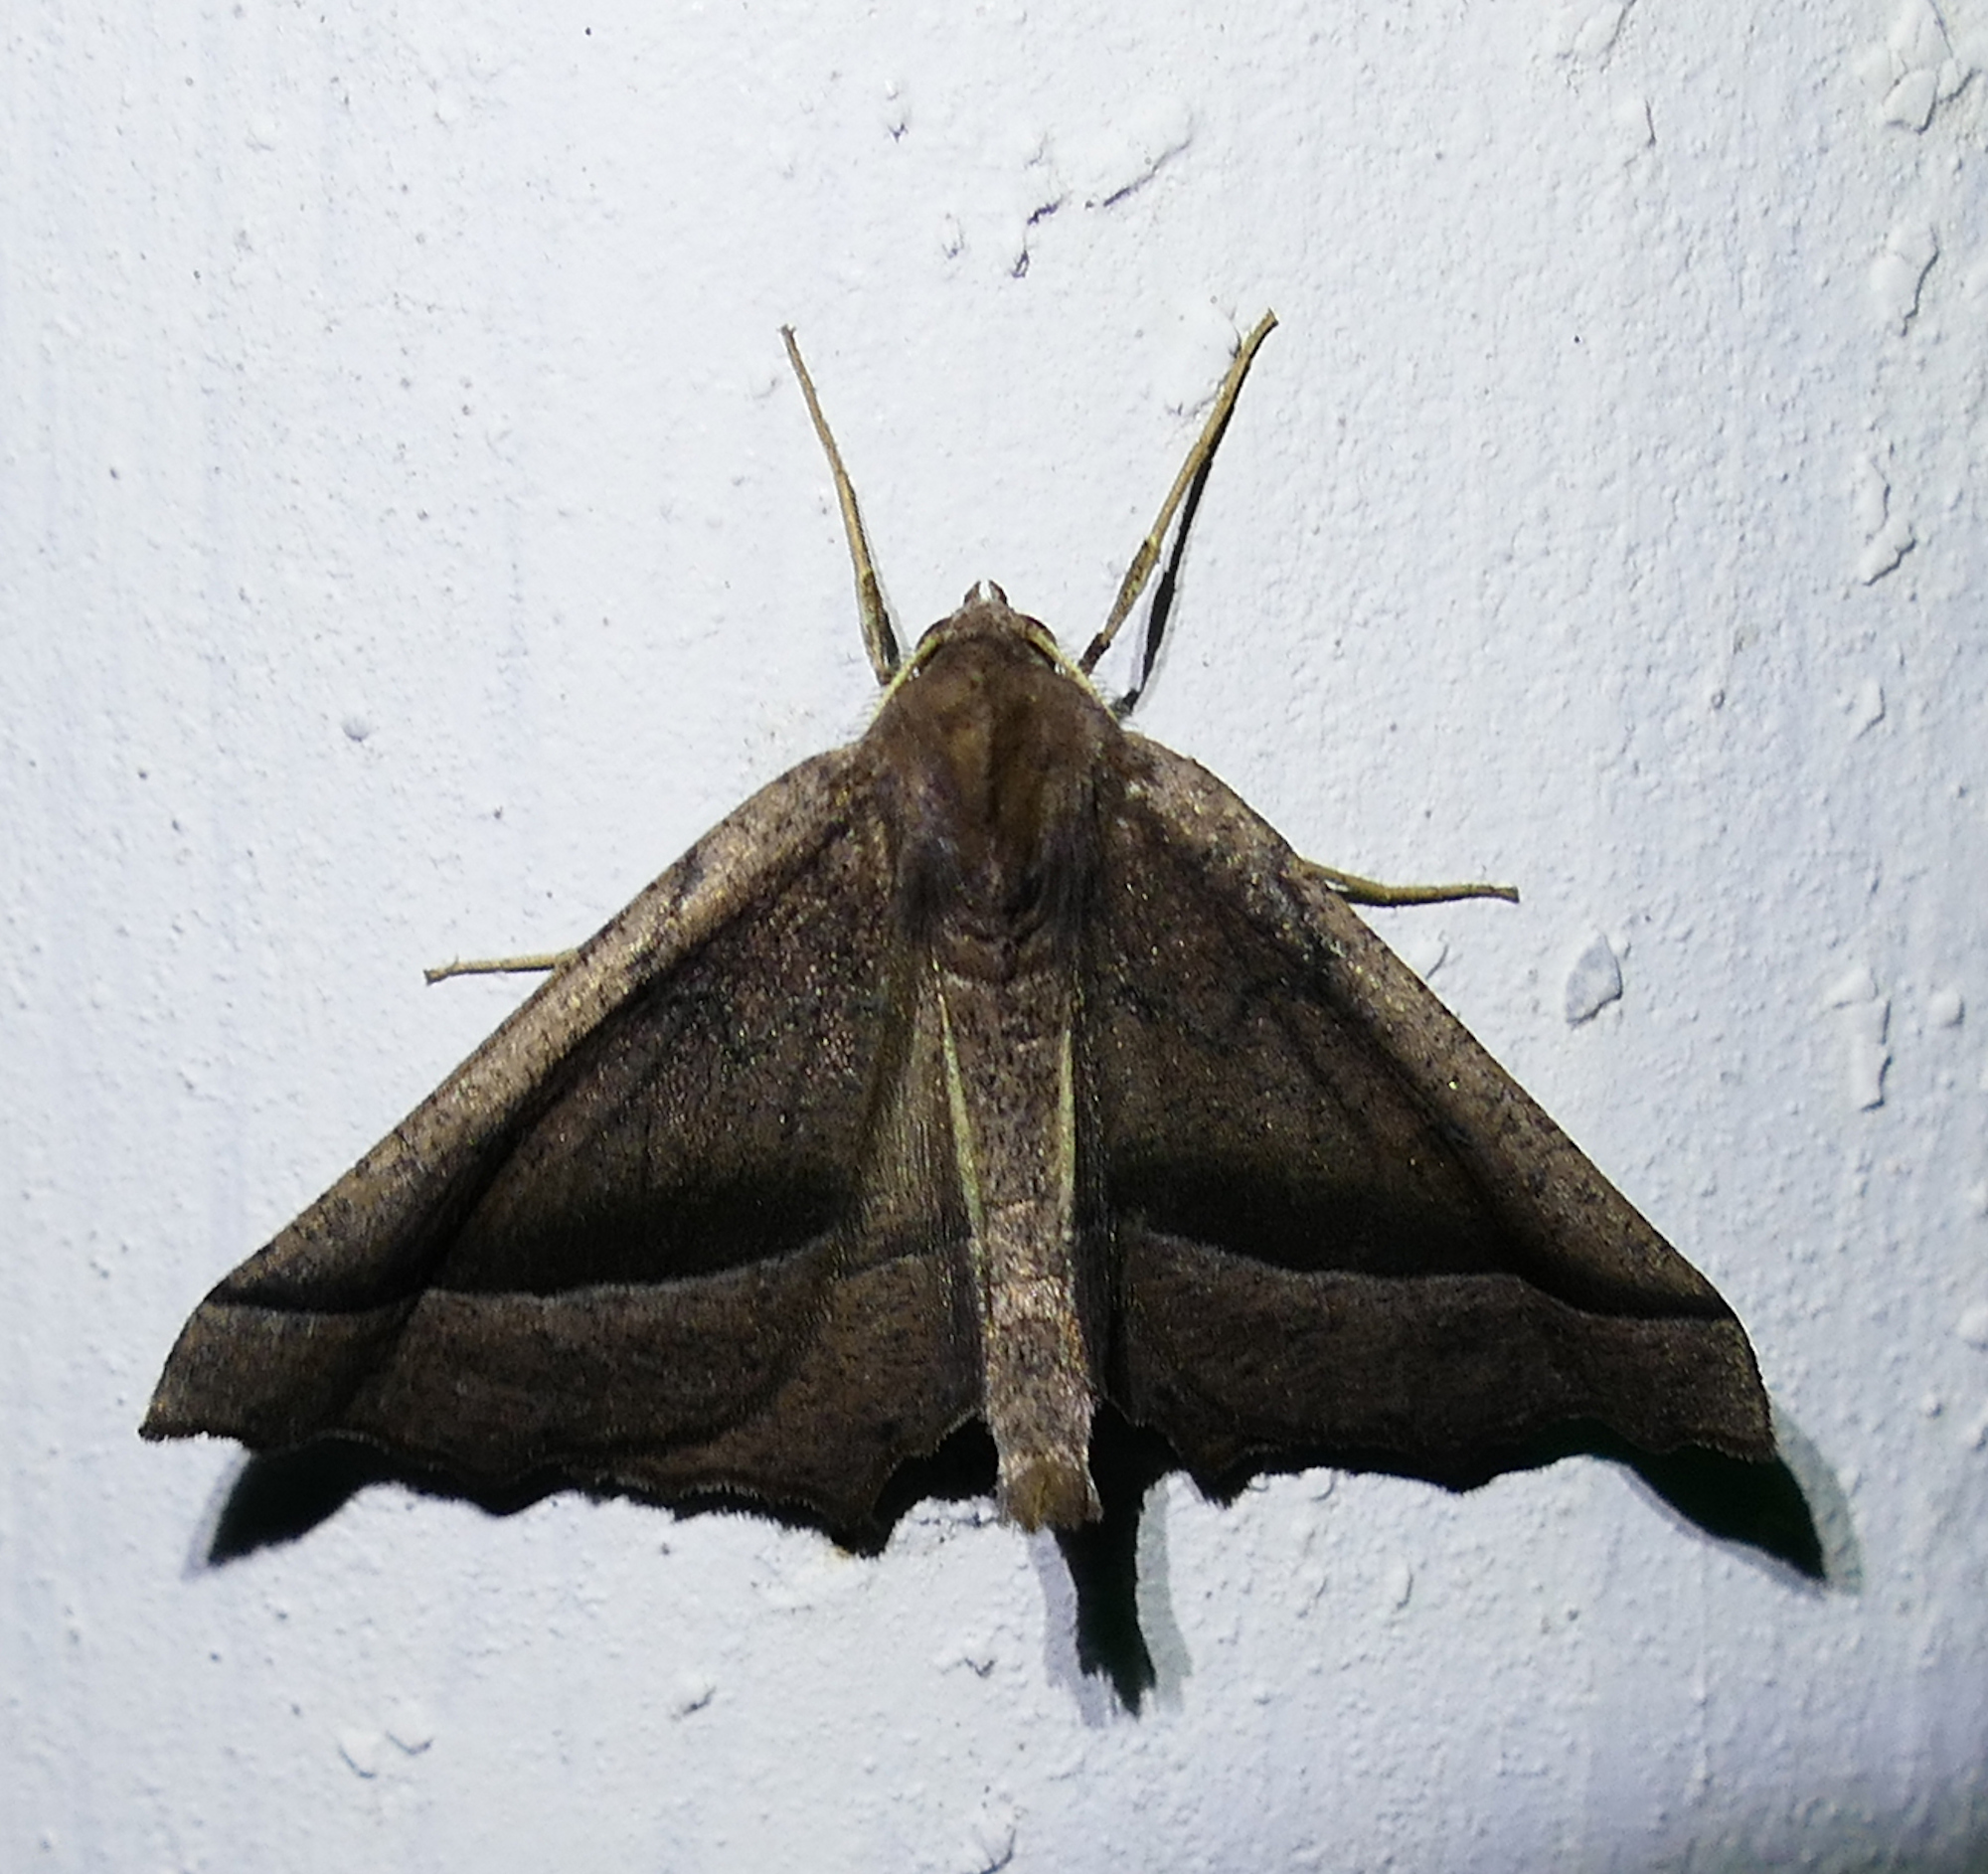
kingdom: Animalia
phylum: Arthropoda
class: Insecta
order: Lepidoptera
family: Geometridae
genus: Pero
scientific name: Pero zalissaria
